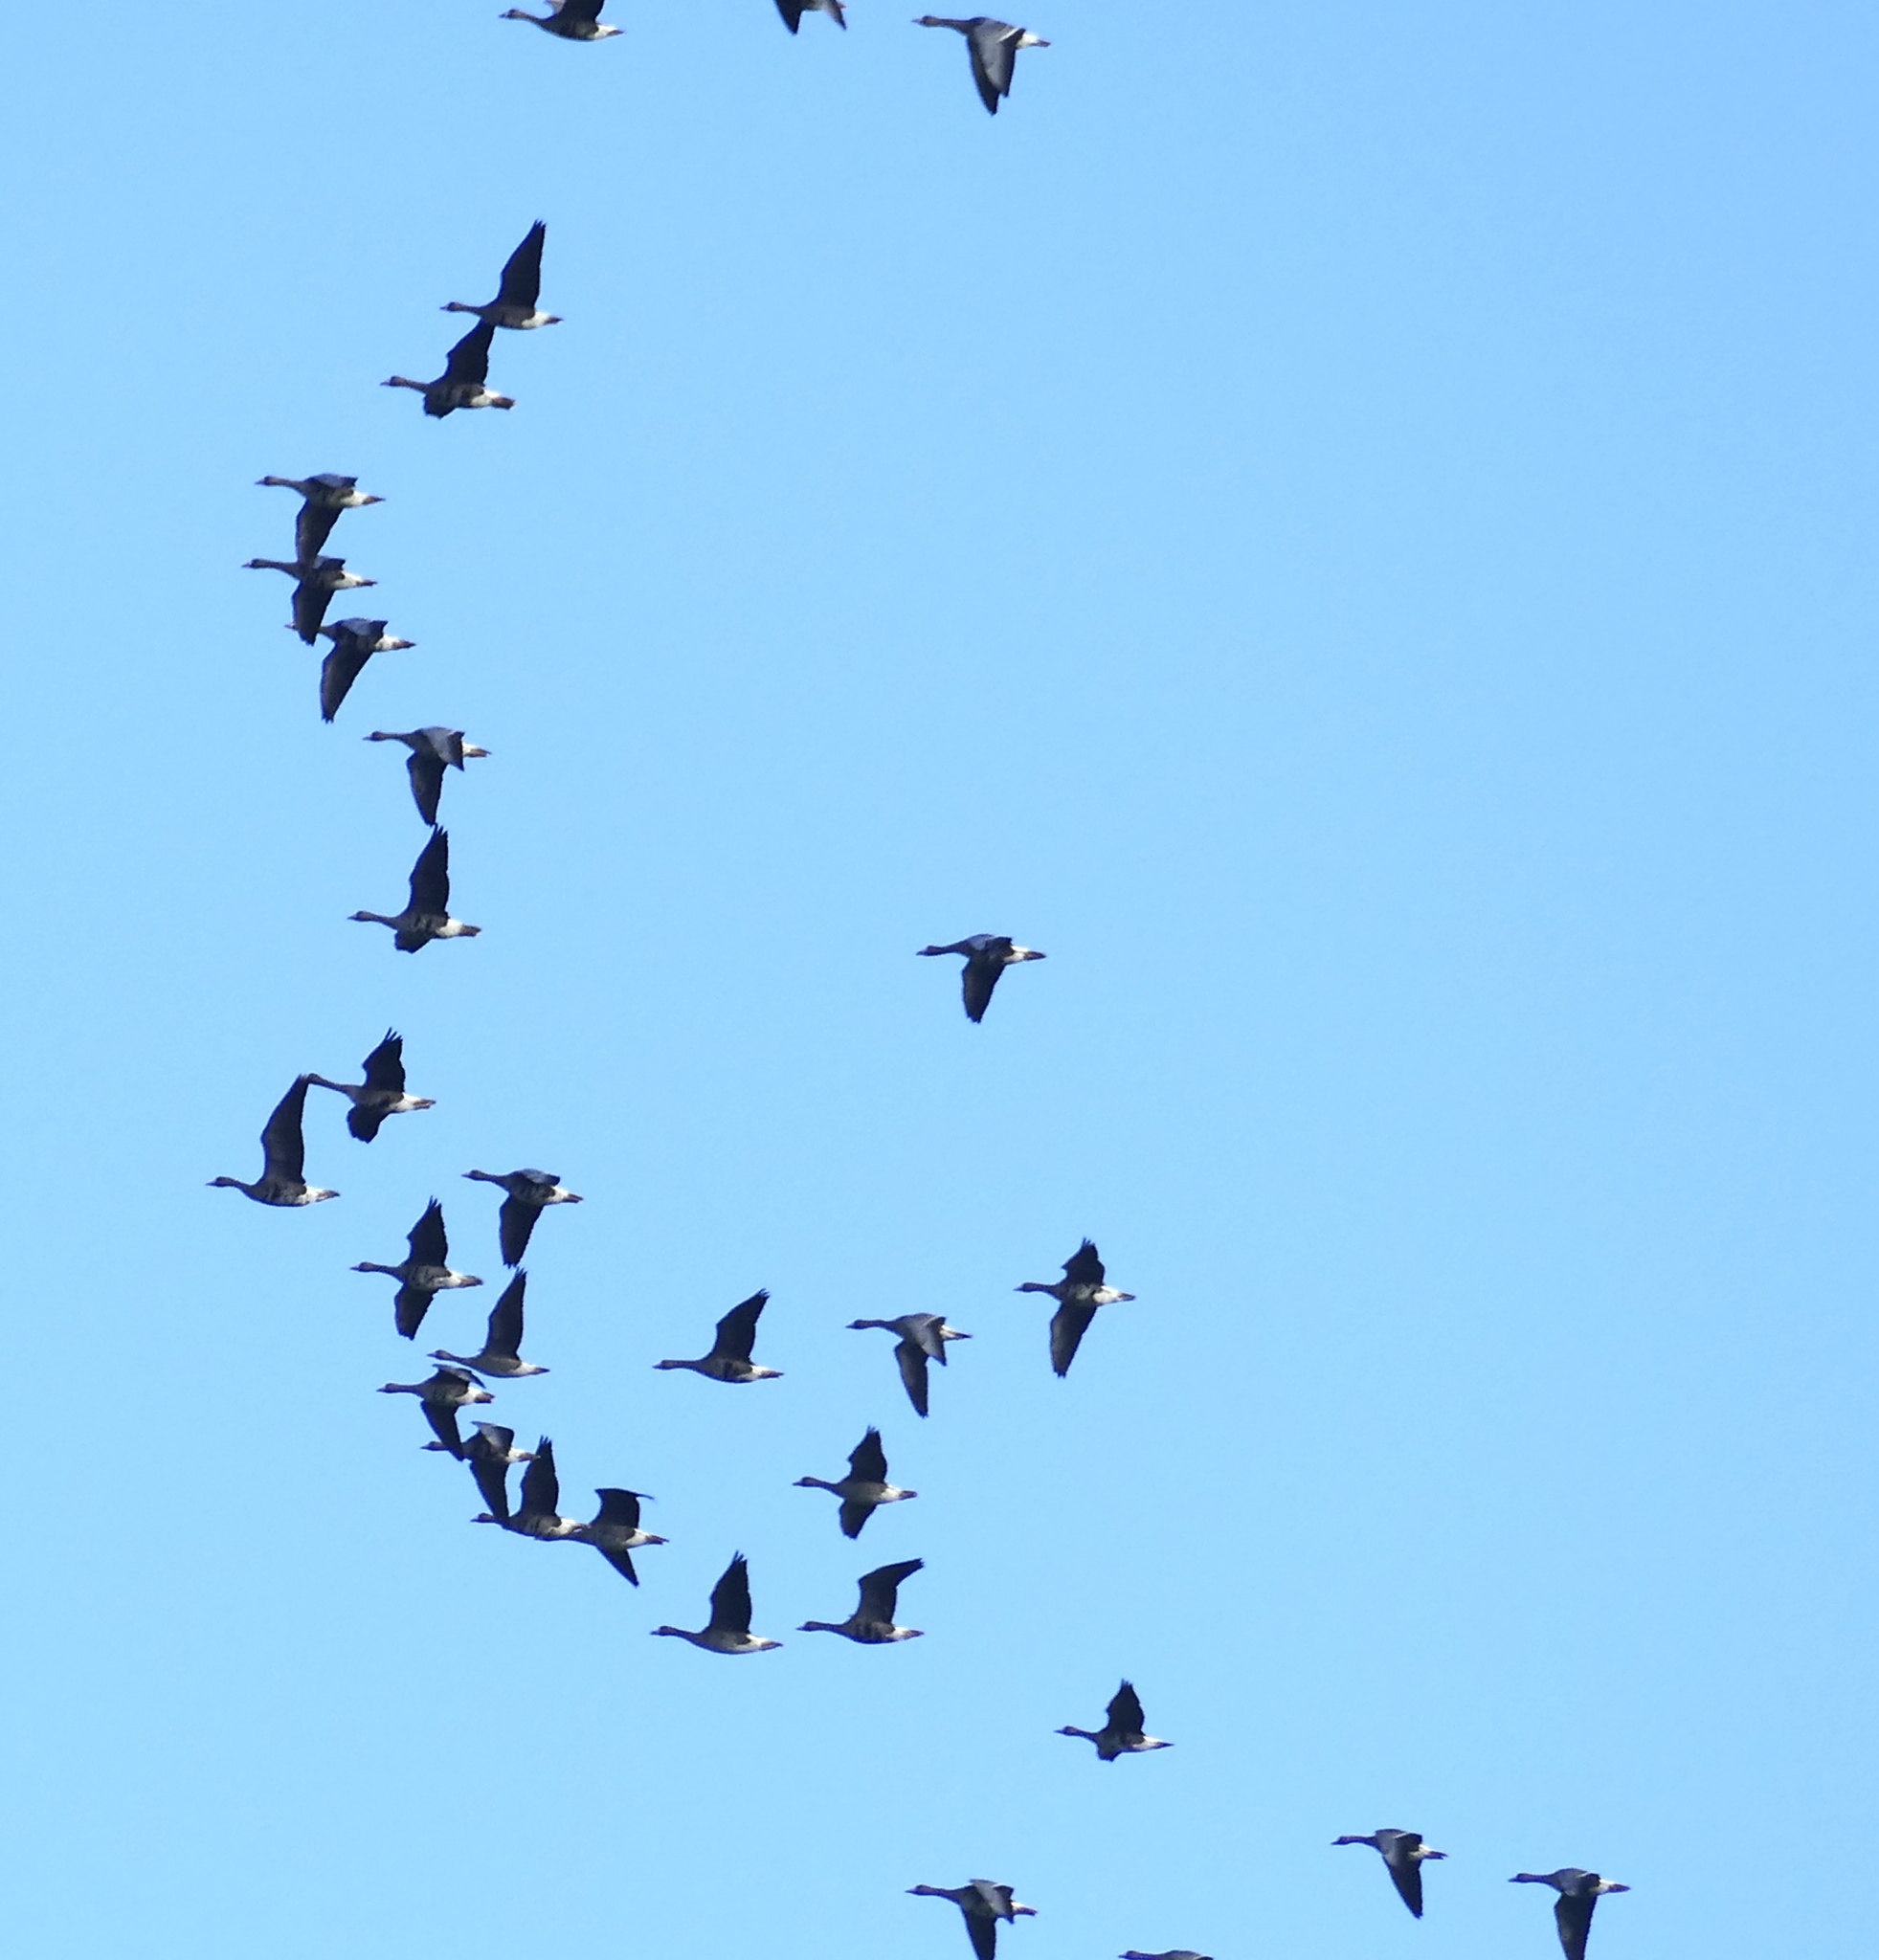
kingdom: Animalia
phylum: Chordata
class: Aves
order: Anseriformes
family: Anatidae
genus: Anser
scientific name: Anser albifrons
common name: Greater white-fronted goose
